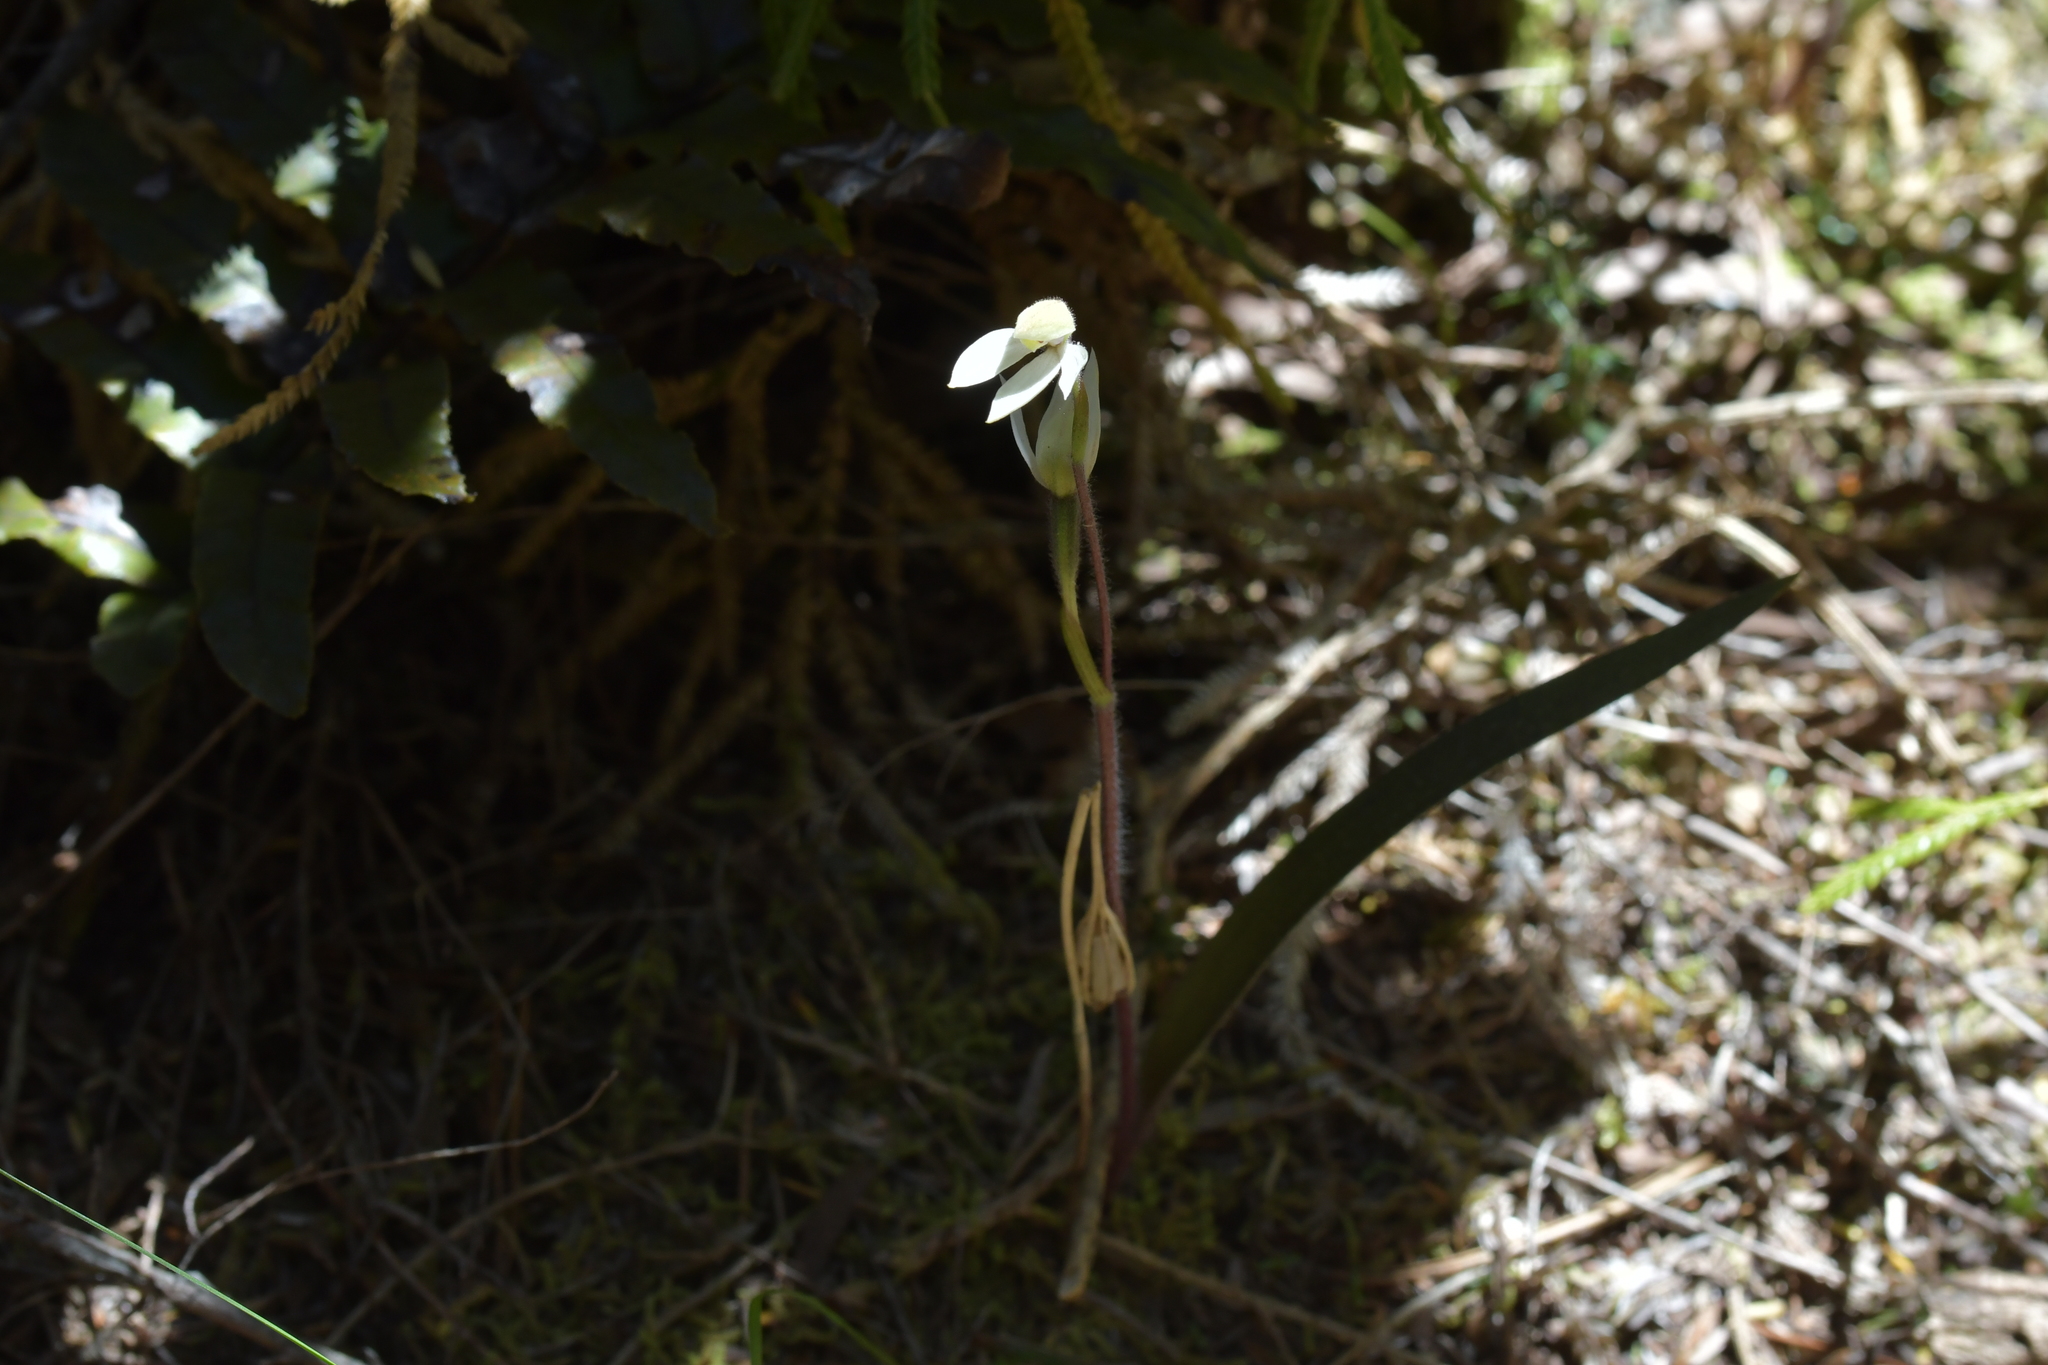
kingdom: Plantae
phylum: Tracheophyta
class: Liliopsida
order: Asparagales
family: Orchidaceae
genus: Caladenia
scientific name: Caladenia lyallii
